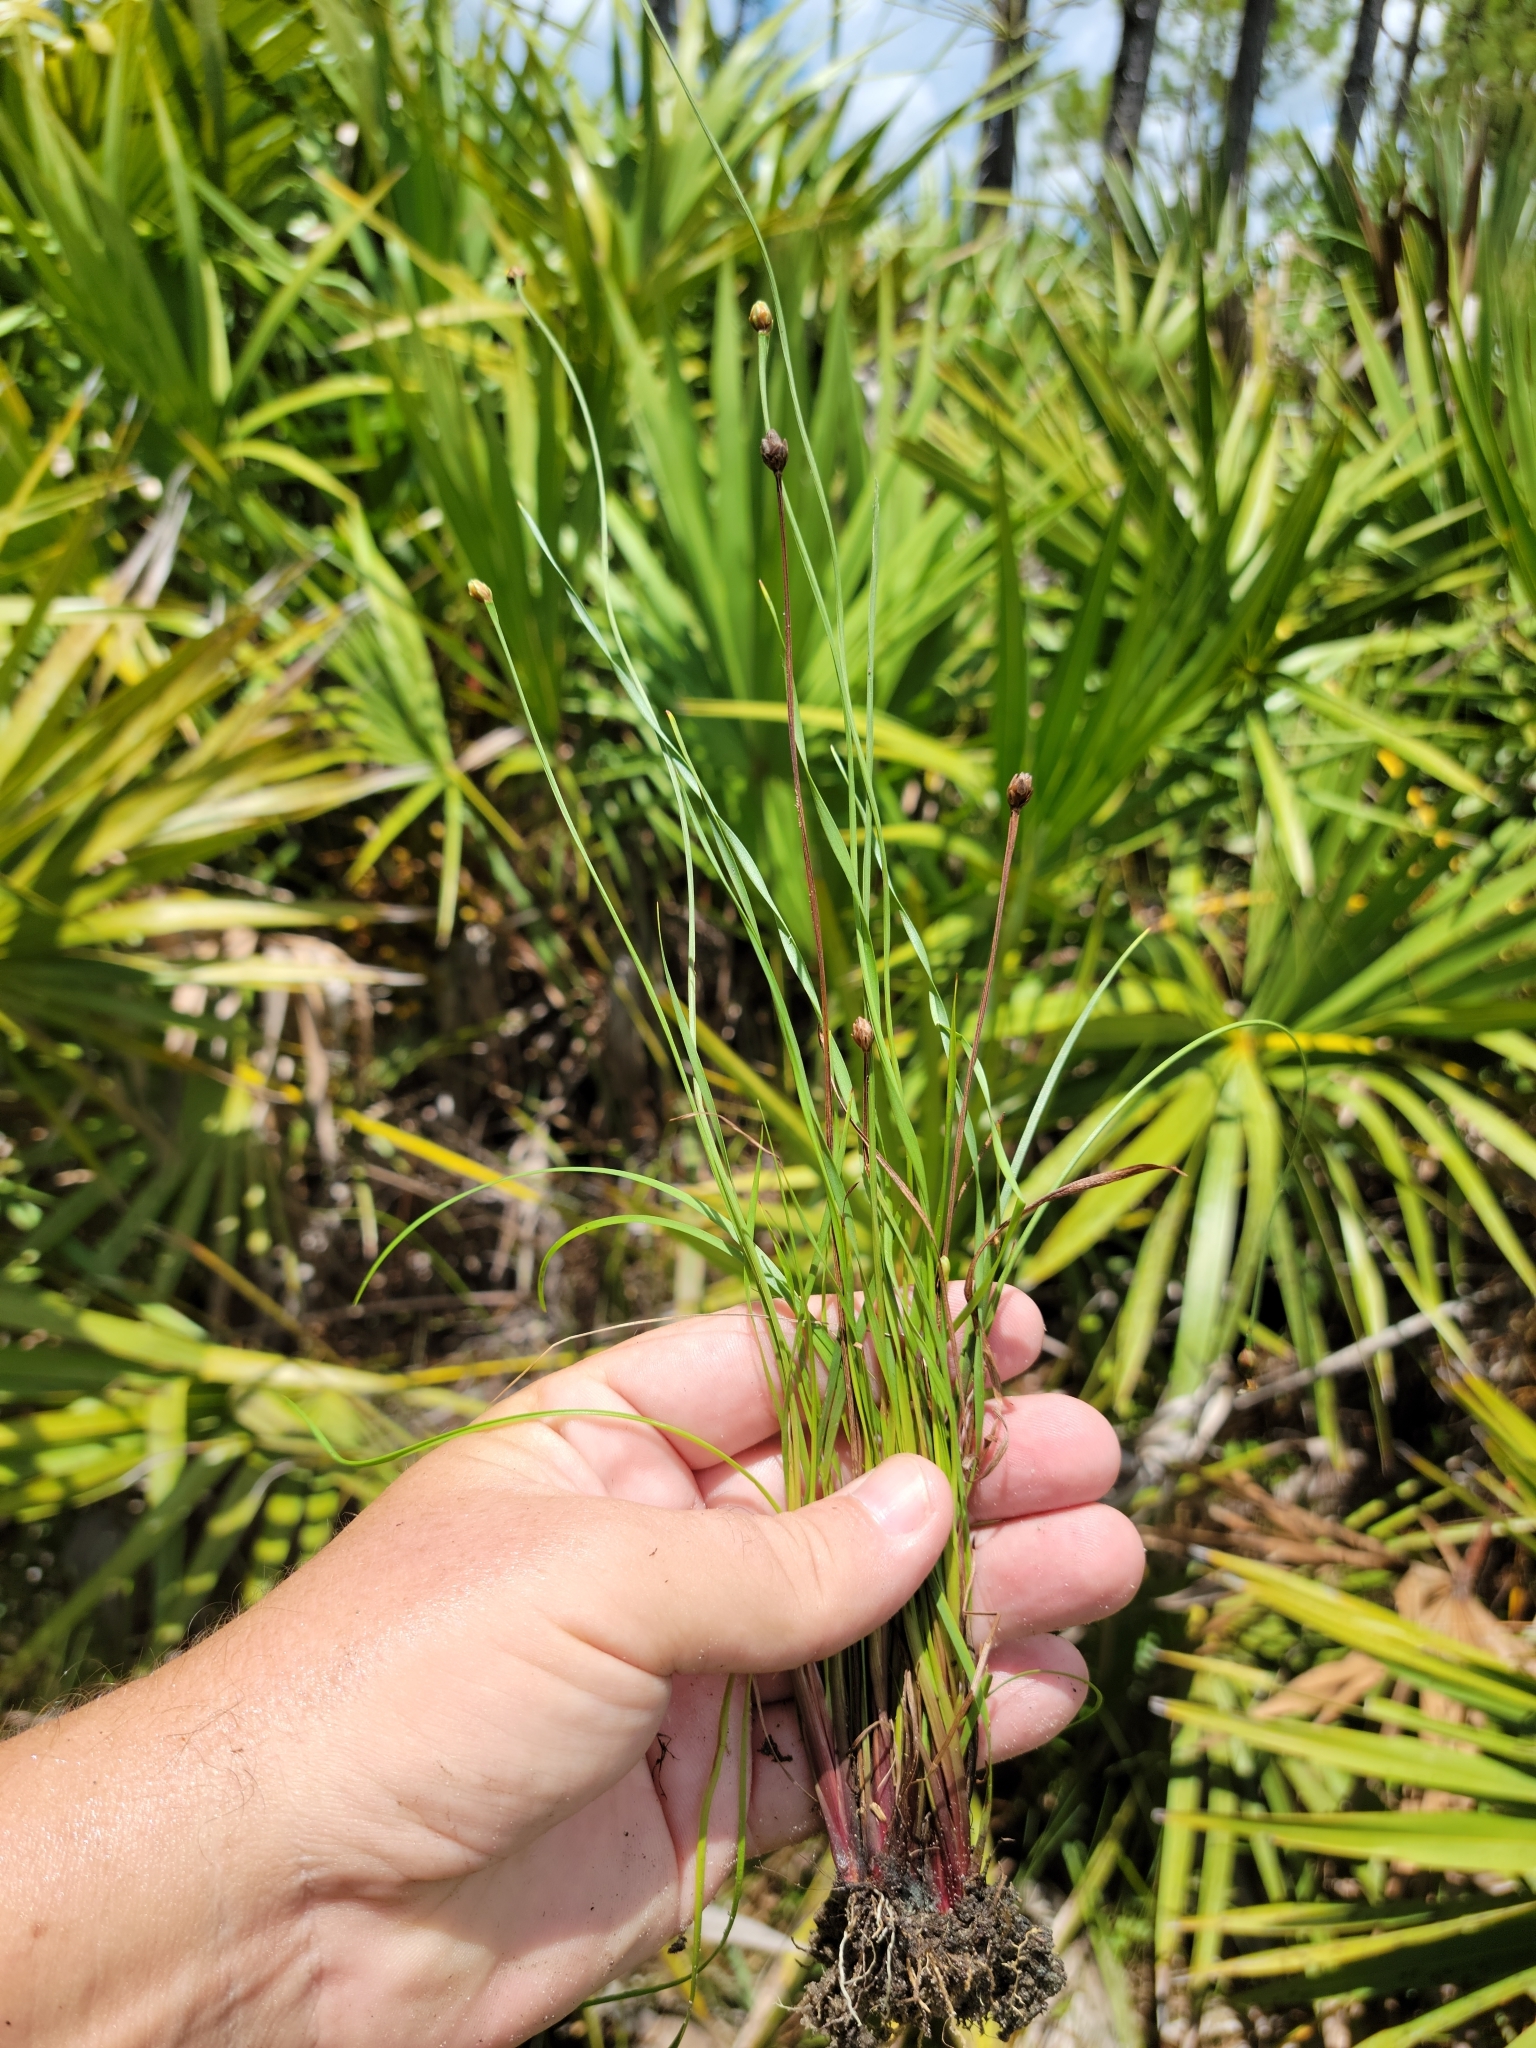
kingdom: Plantae
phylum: Tracheophyta
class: Liliopsida
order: Poales
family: Xyridaceae
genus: Xyris
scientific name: Xyris calcicola
